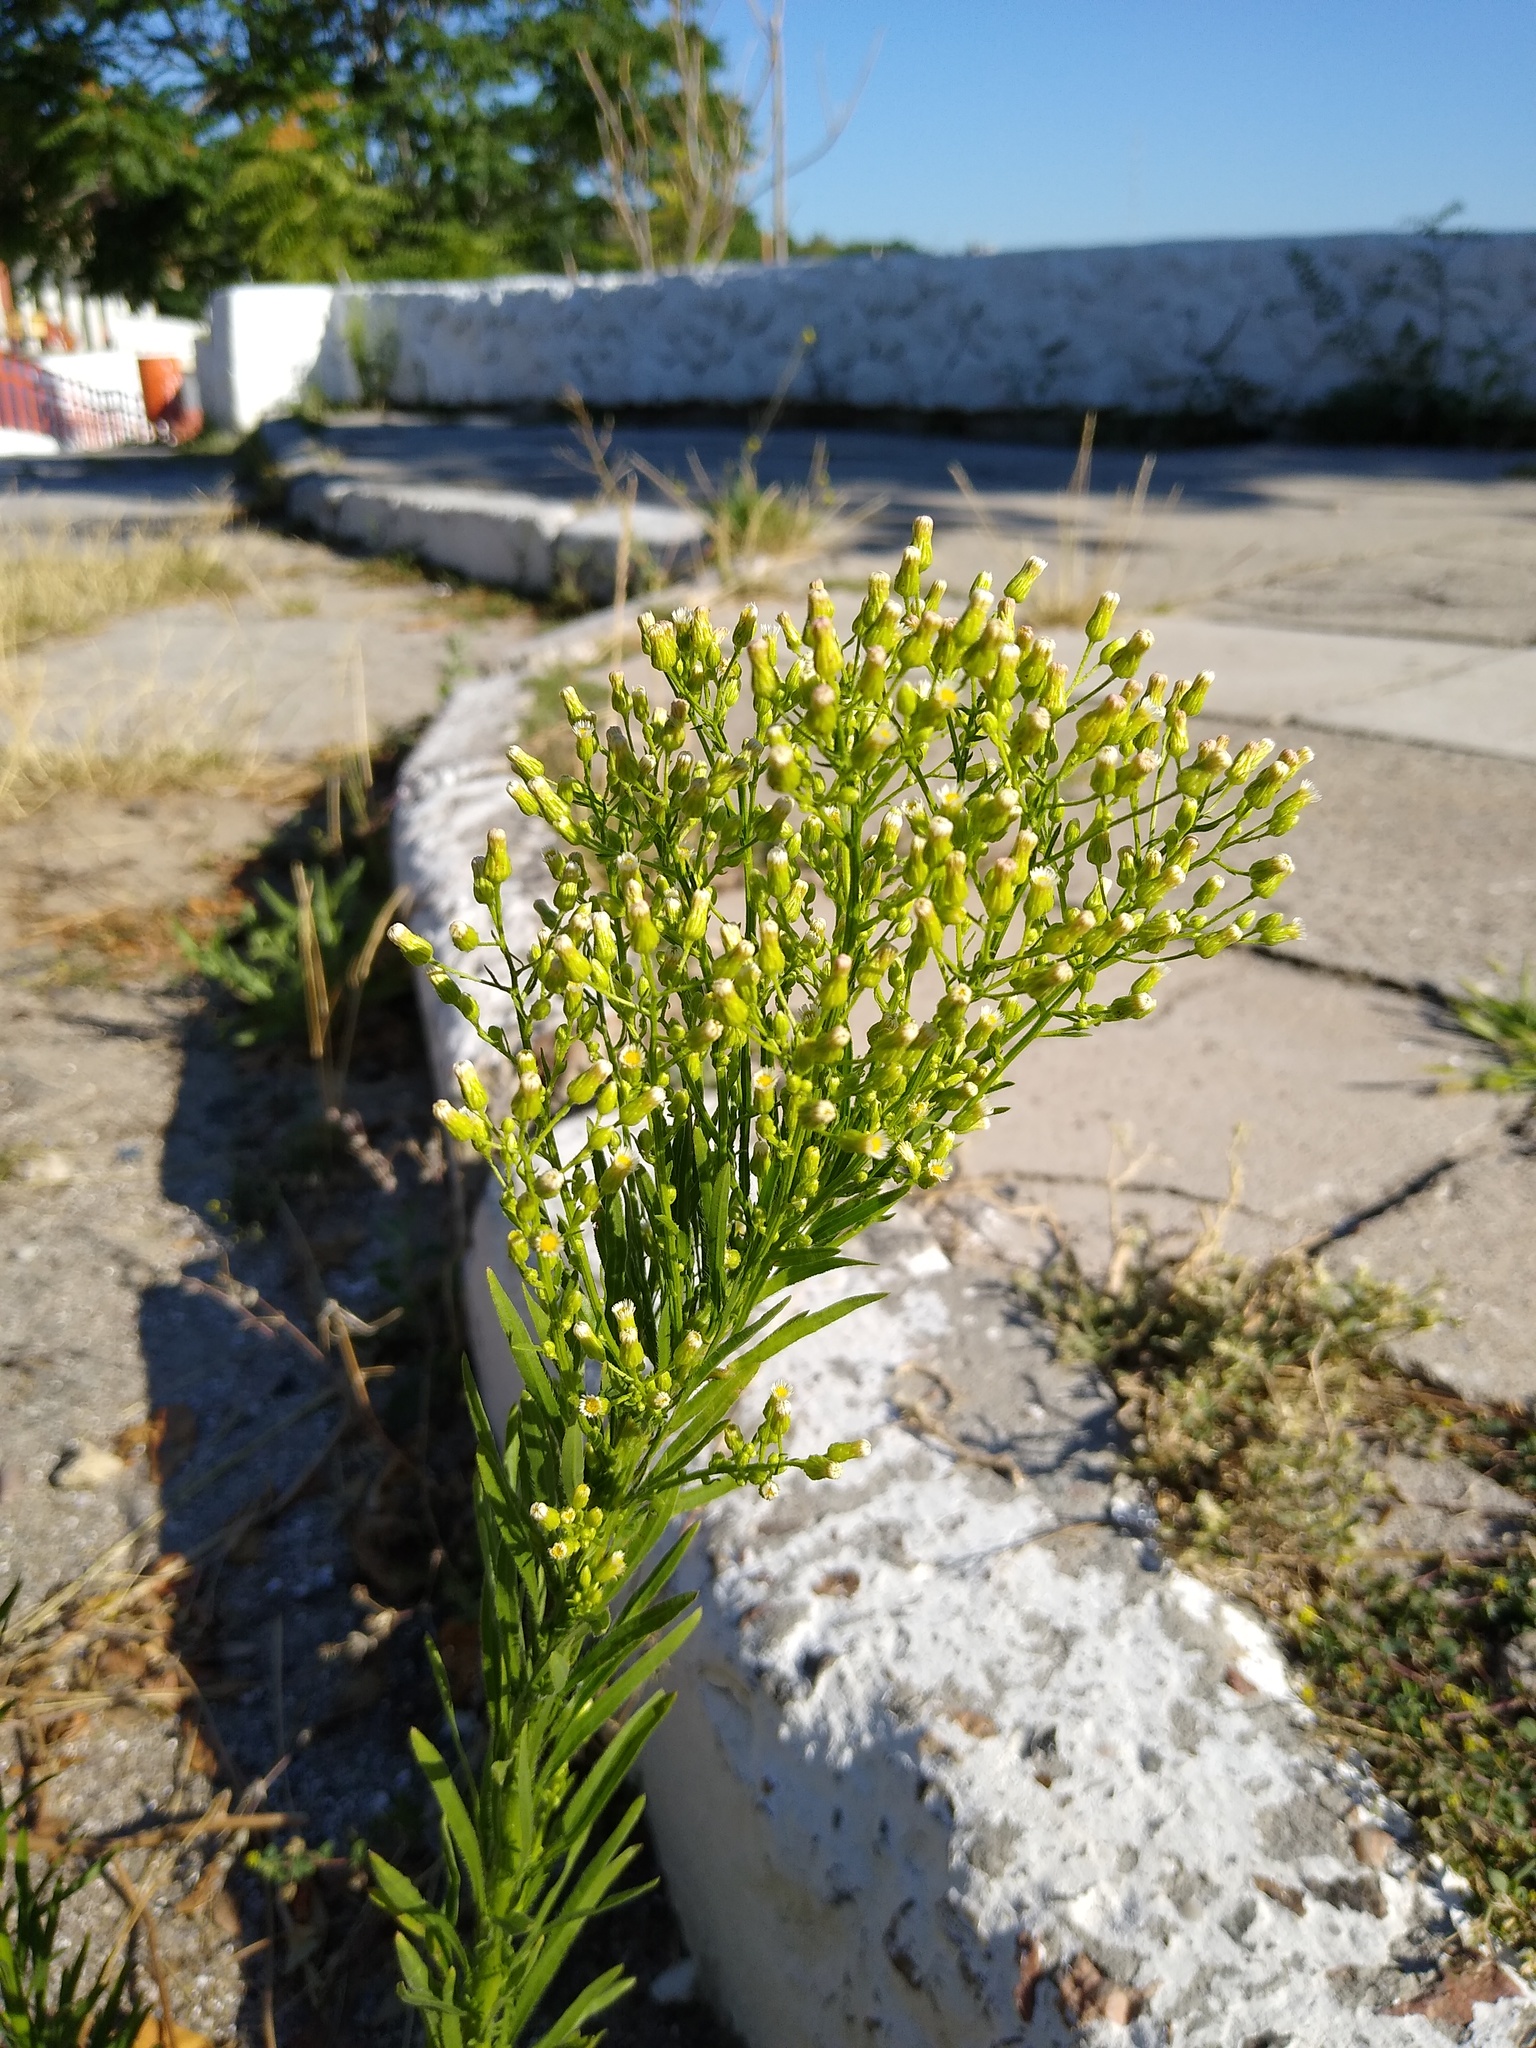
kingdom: Plantae
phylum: Tracheophyta
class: Magnoliopsida
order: Asterales
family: Asteraceae
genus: Erigeron
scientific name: Erigeron canadensis
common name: Canadian fleabane
